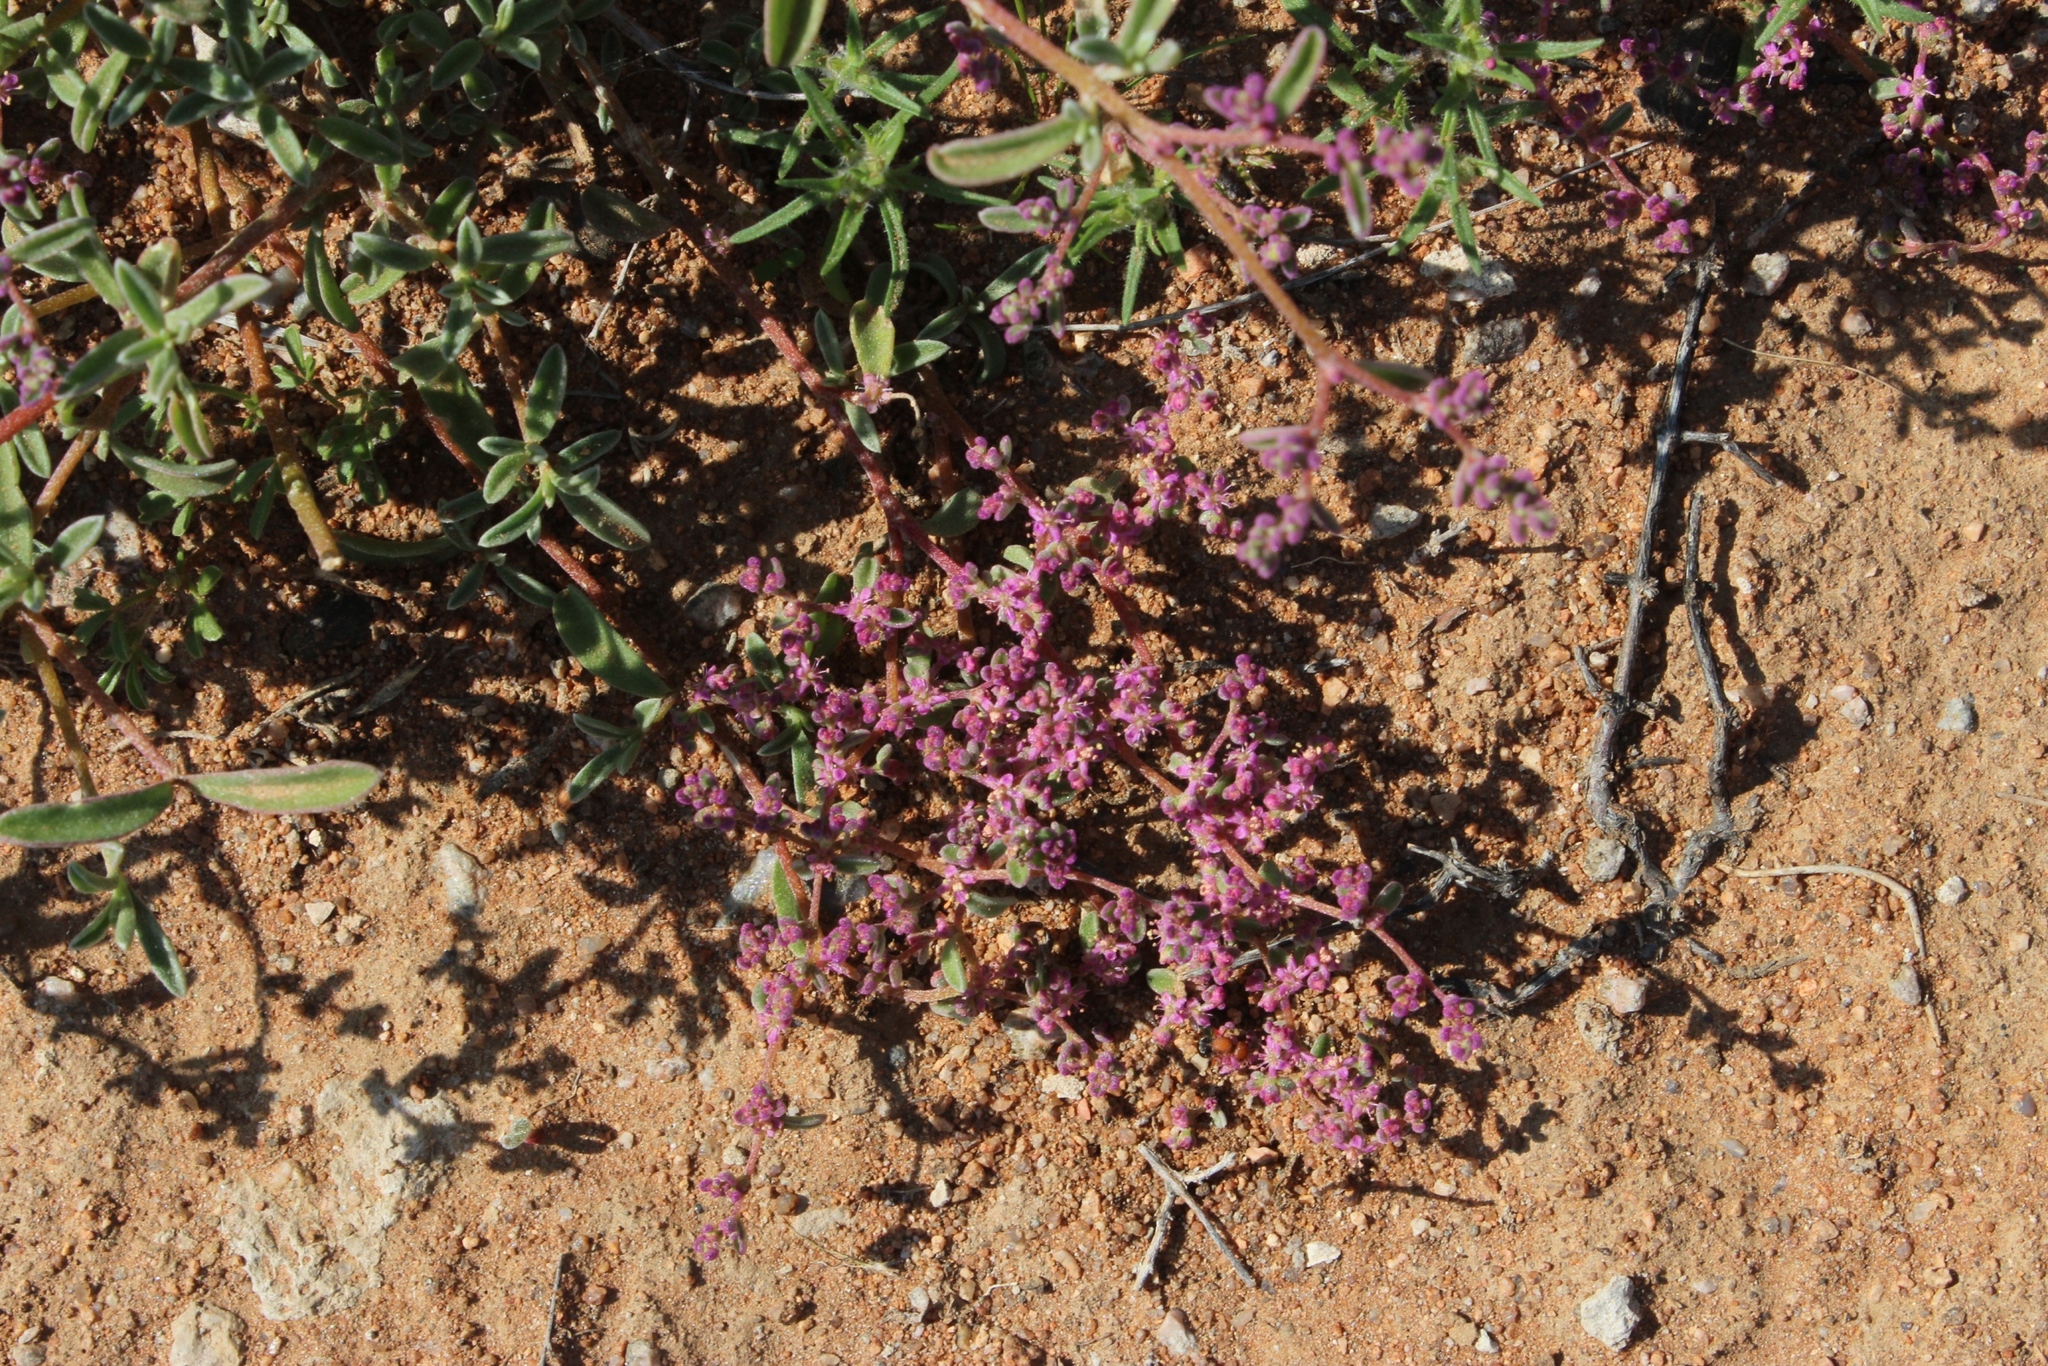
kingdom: Plantae
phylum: Tracheophyta
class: Magnoliopsida
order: Caryophyllales
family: Aizoaceae
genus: Aizoon
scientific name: Aizoon sarcophyllum
